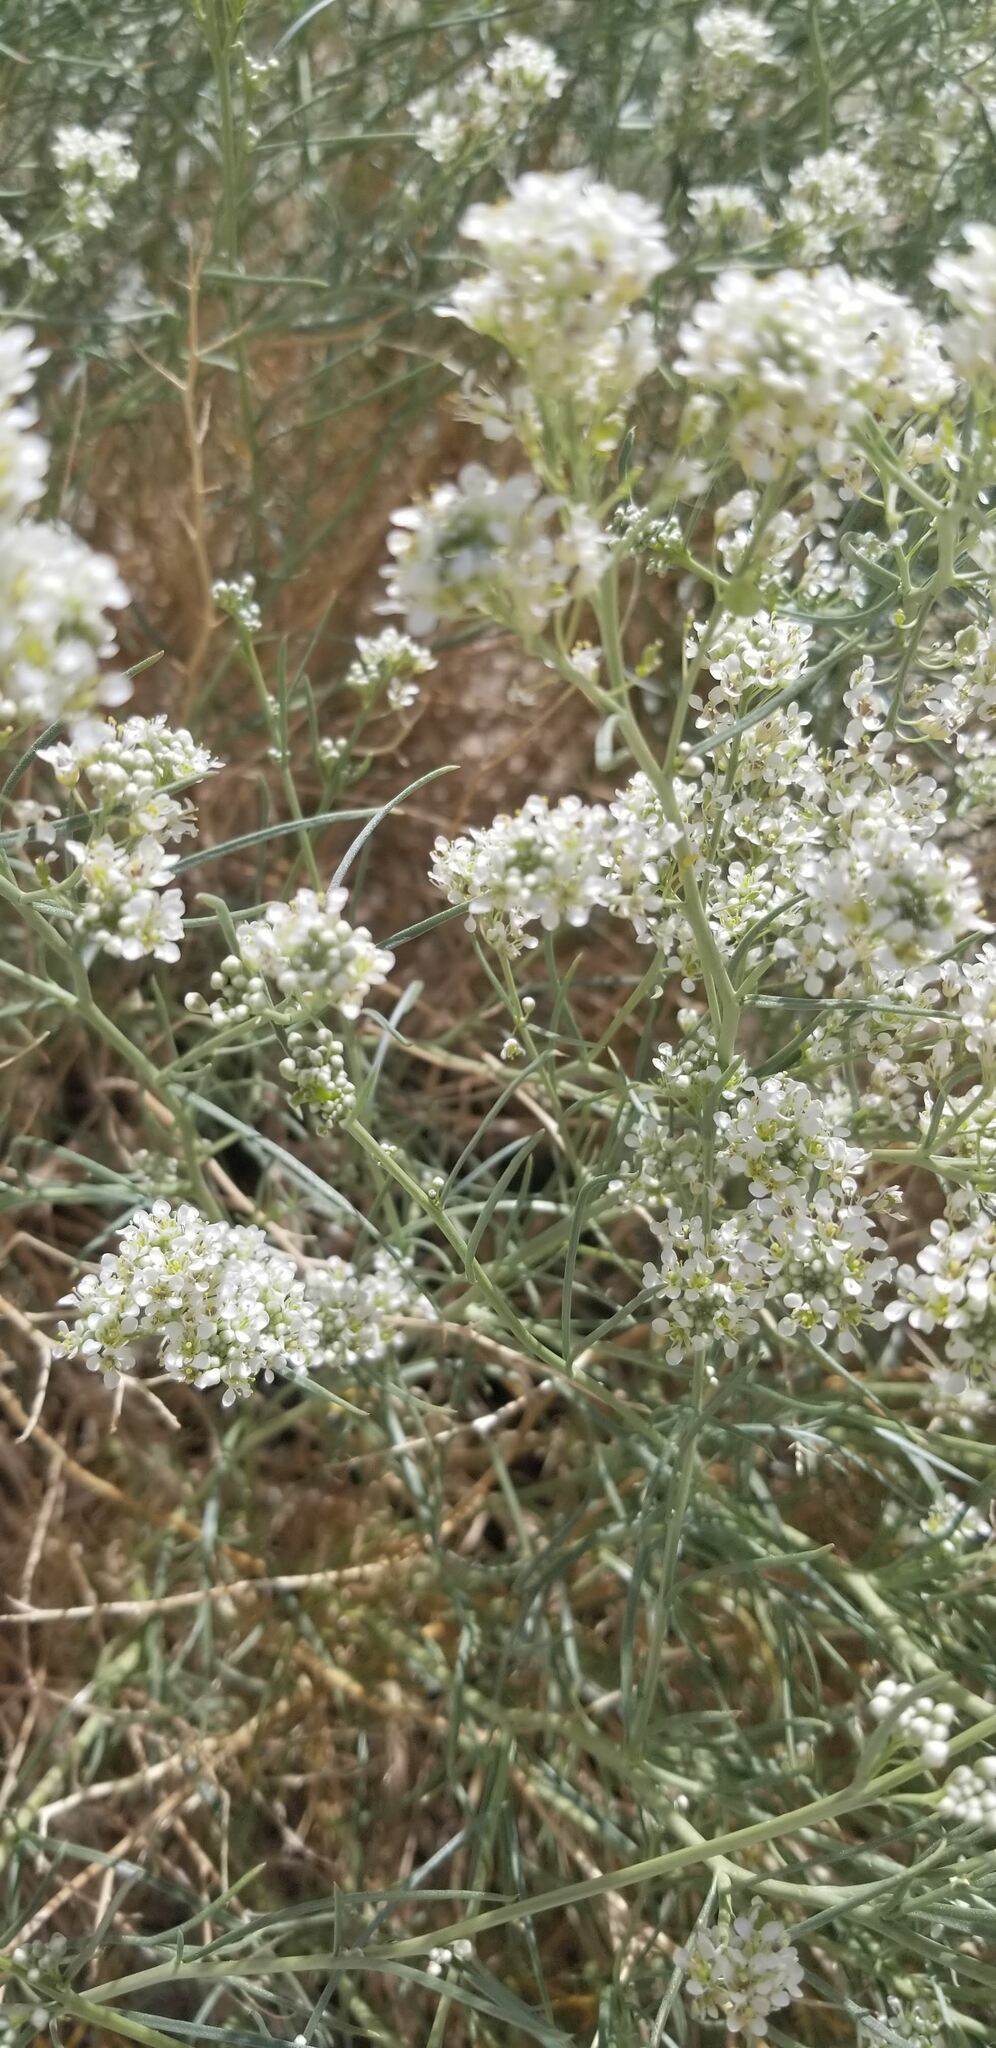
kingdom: Plantae
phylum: Tracheophyta
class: Magnoliopsida
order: Brassicales
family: Brassicaceae
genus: Lepidium
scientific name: Lepidium fremontii
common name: Fremont's pepperwort
